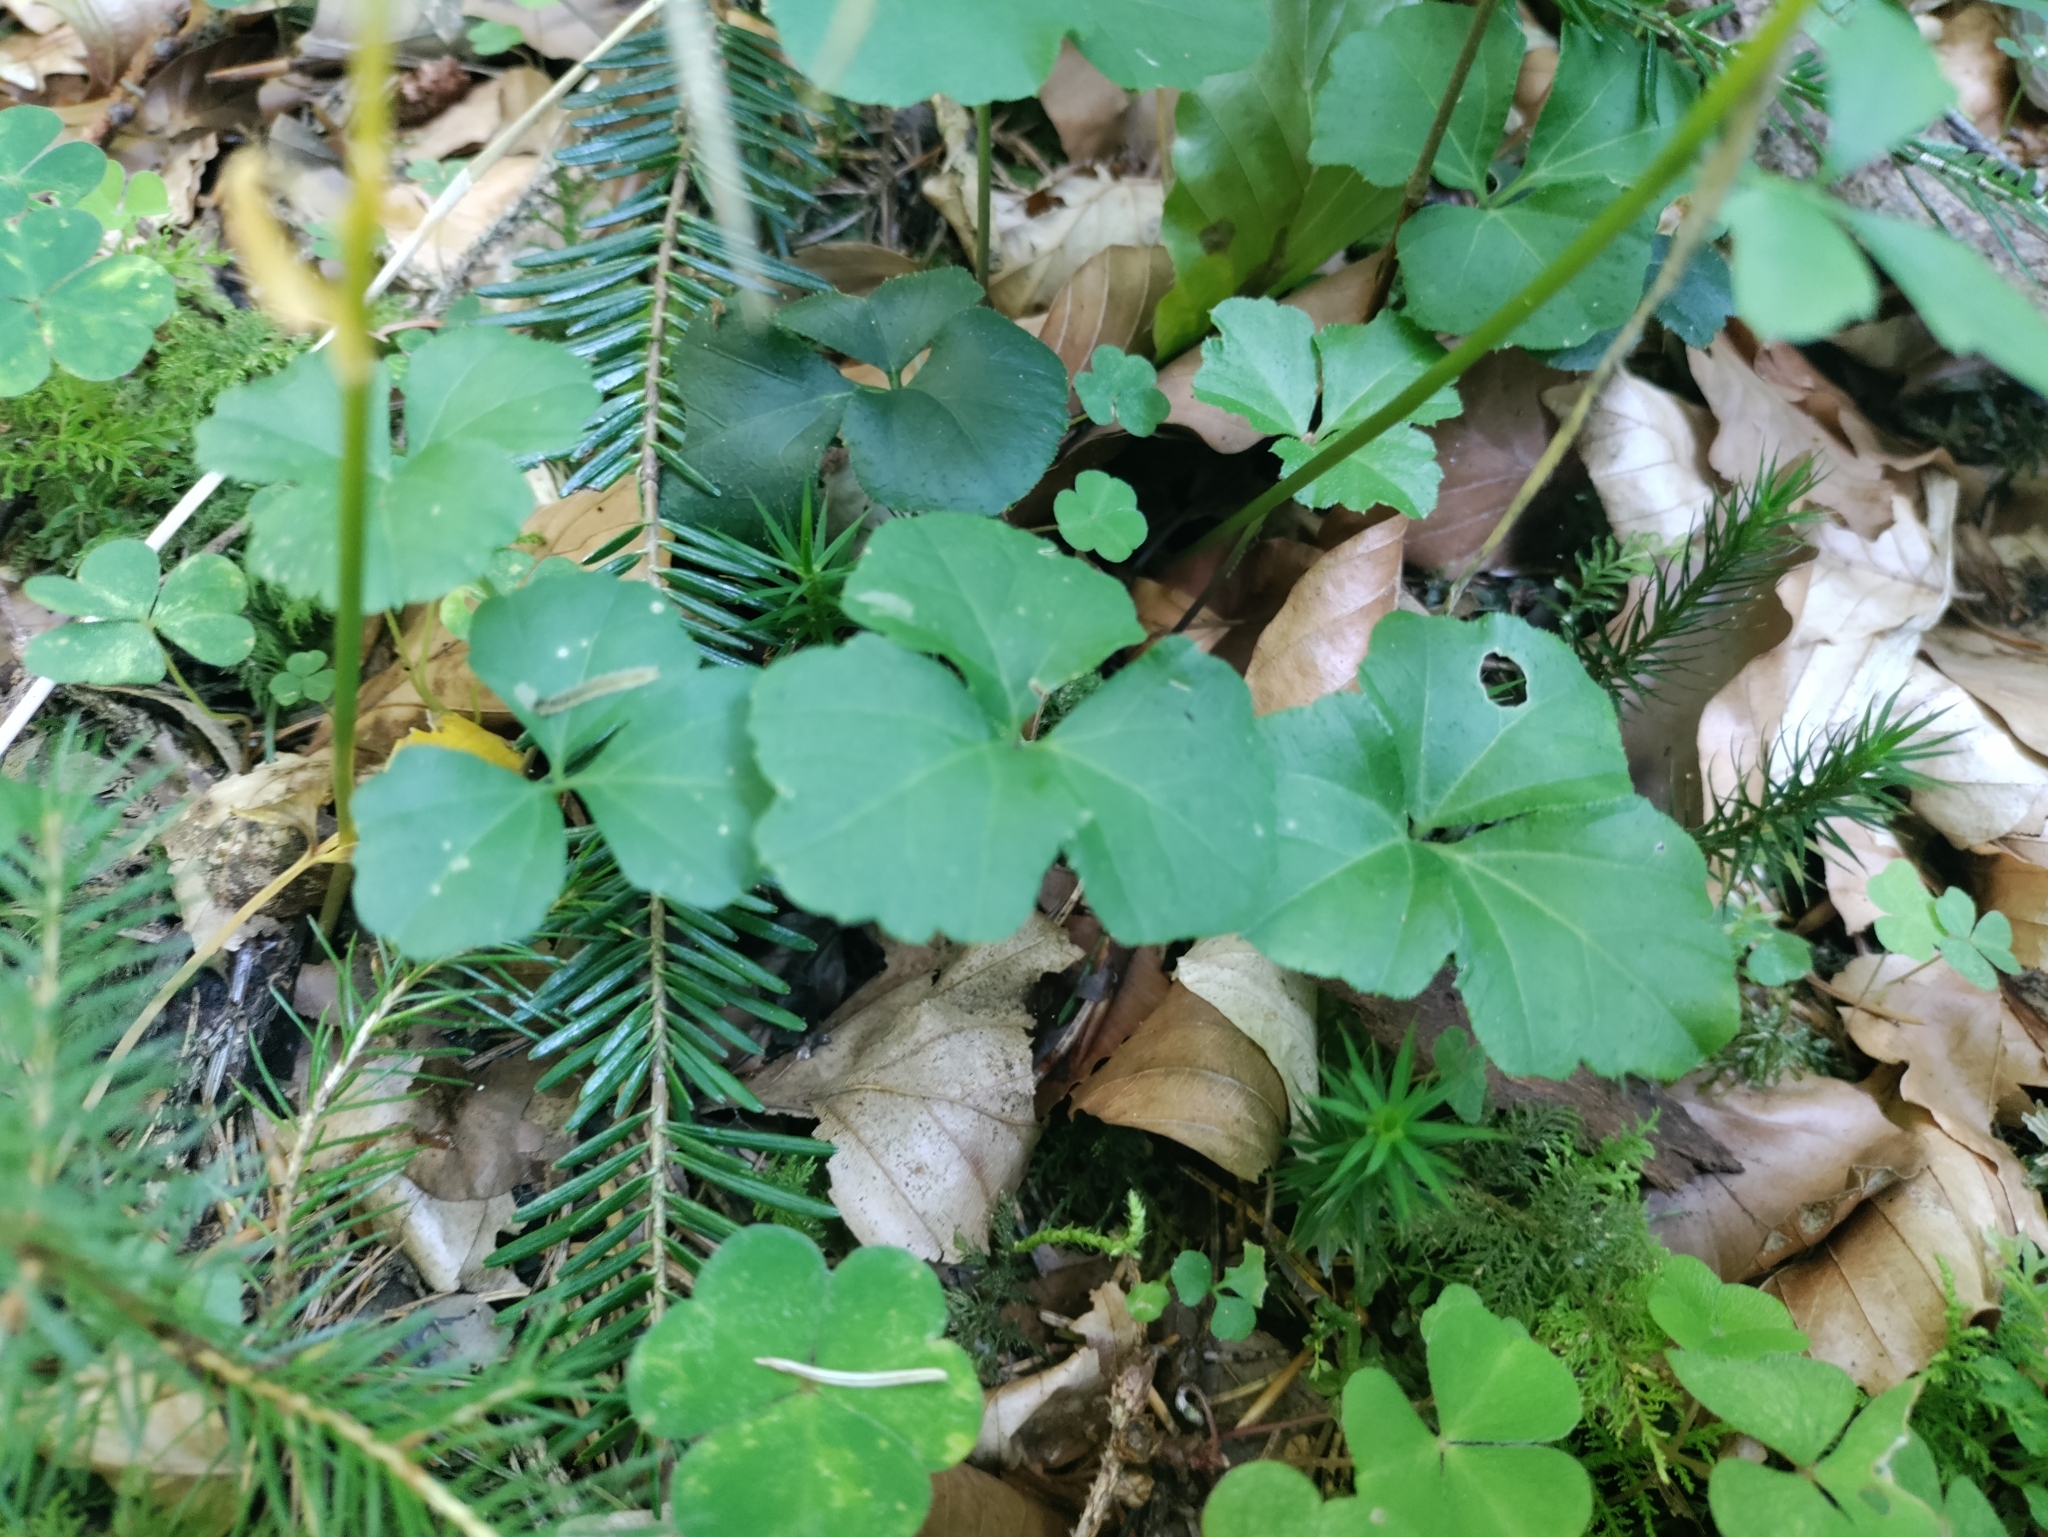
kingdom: Plantae
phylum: Tracheophyta
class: Magnoliopsida
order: Brassicales
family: Brassicaceae
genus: Cardamine
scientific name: Cardamine trifolia
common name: Trefoil cress
